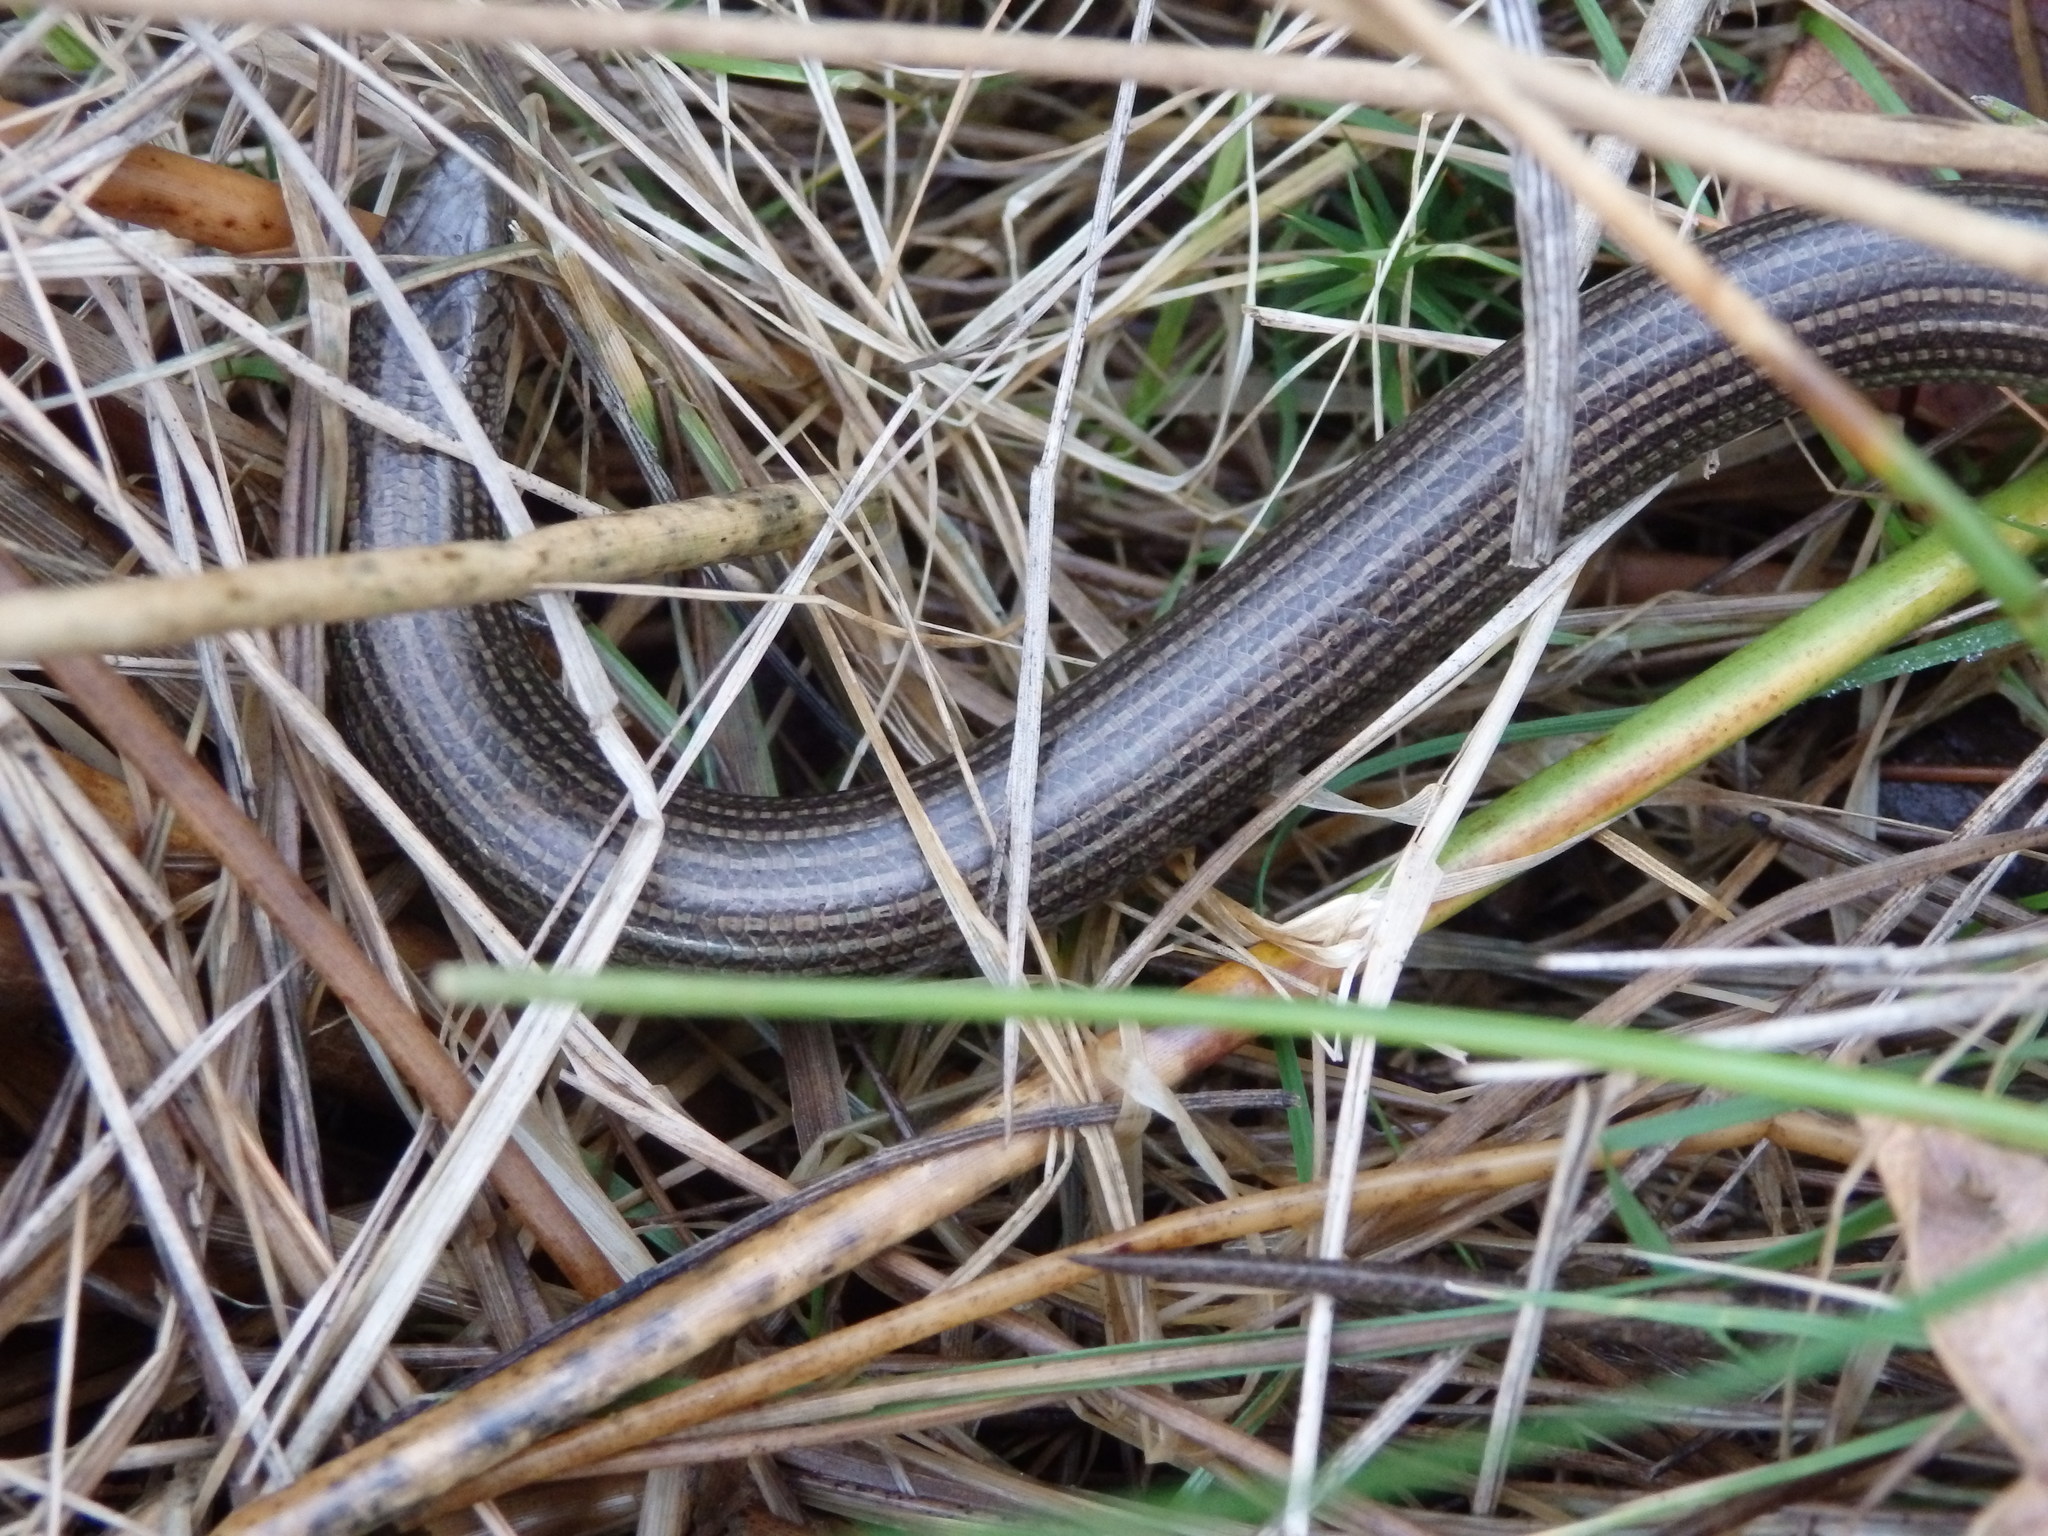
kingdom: Animalia
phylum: Chordata
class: Squamata
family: Scincidae
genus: Chalcides
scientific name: Chalcides striatus
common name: Western (or iberian) three-toed skink
